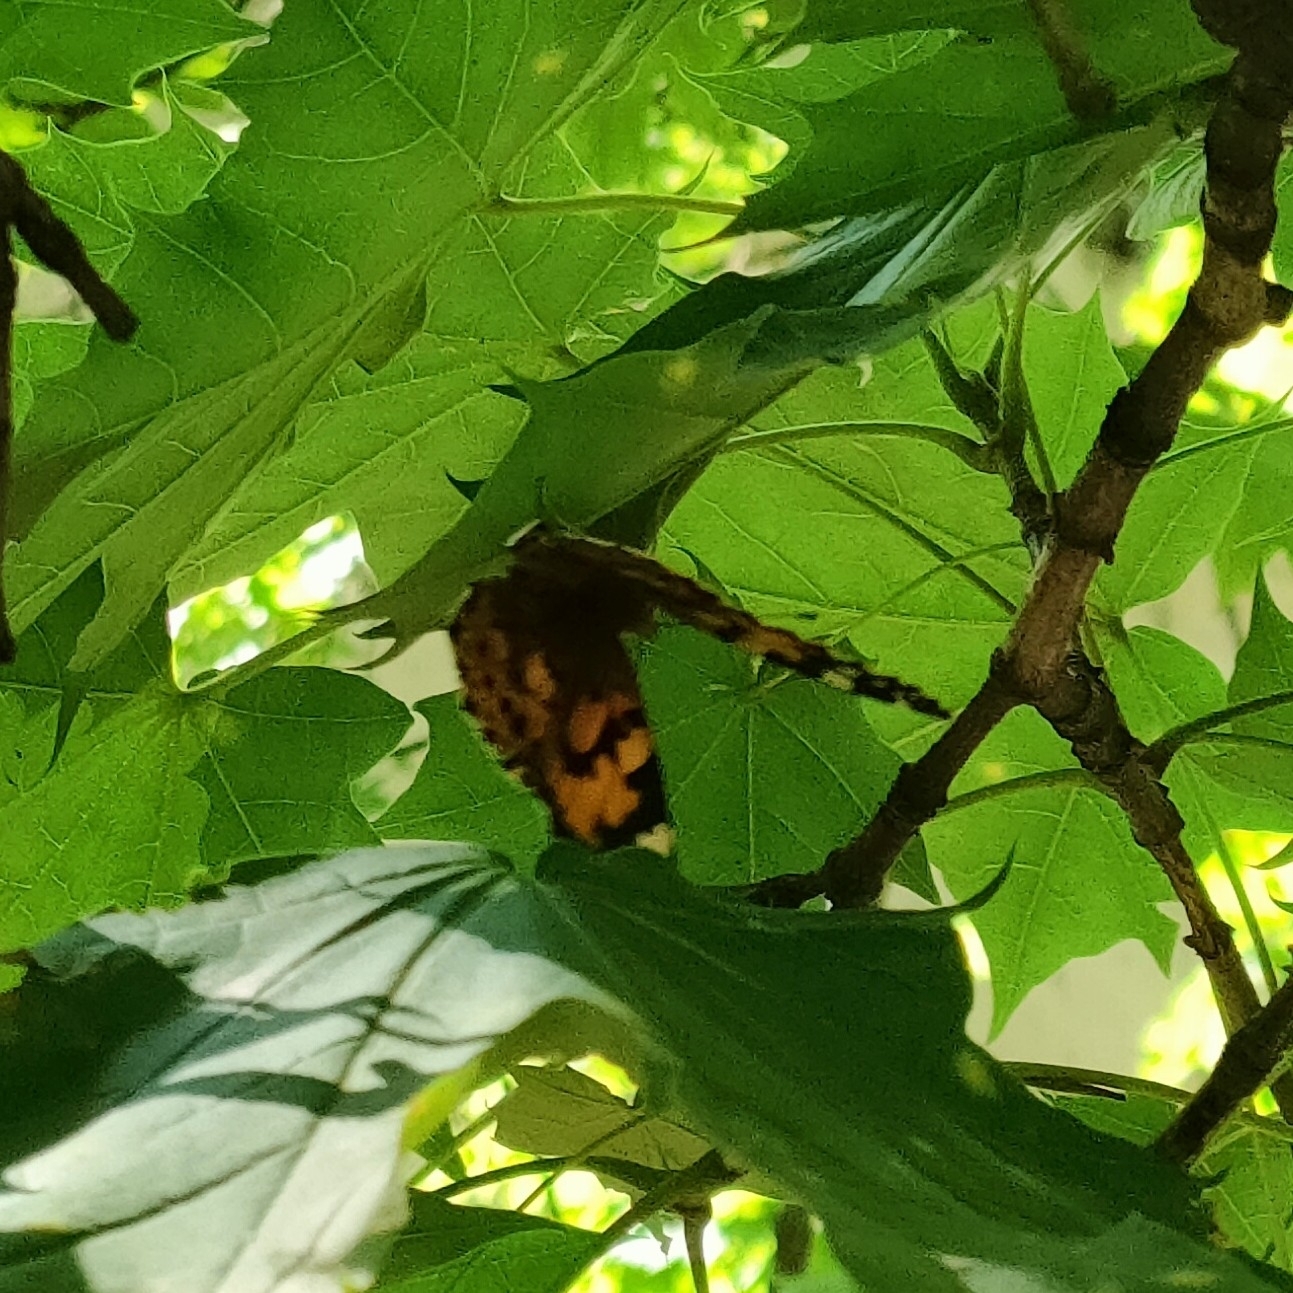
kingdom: Animalia
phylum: Arthropoda
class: Insecta
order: Lepidoptera
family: Nymphalidae
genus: Vanessa
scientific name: Vanessa cardui
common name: Painted lady
